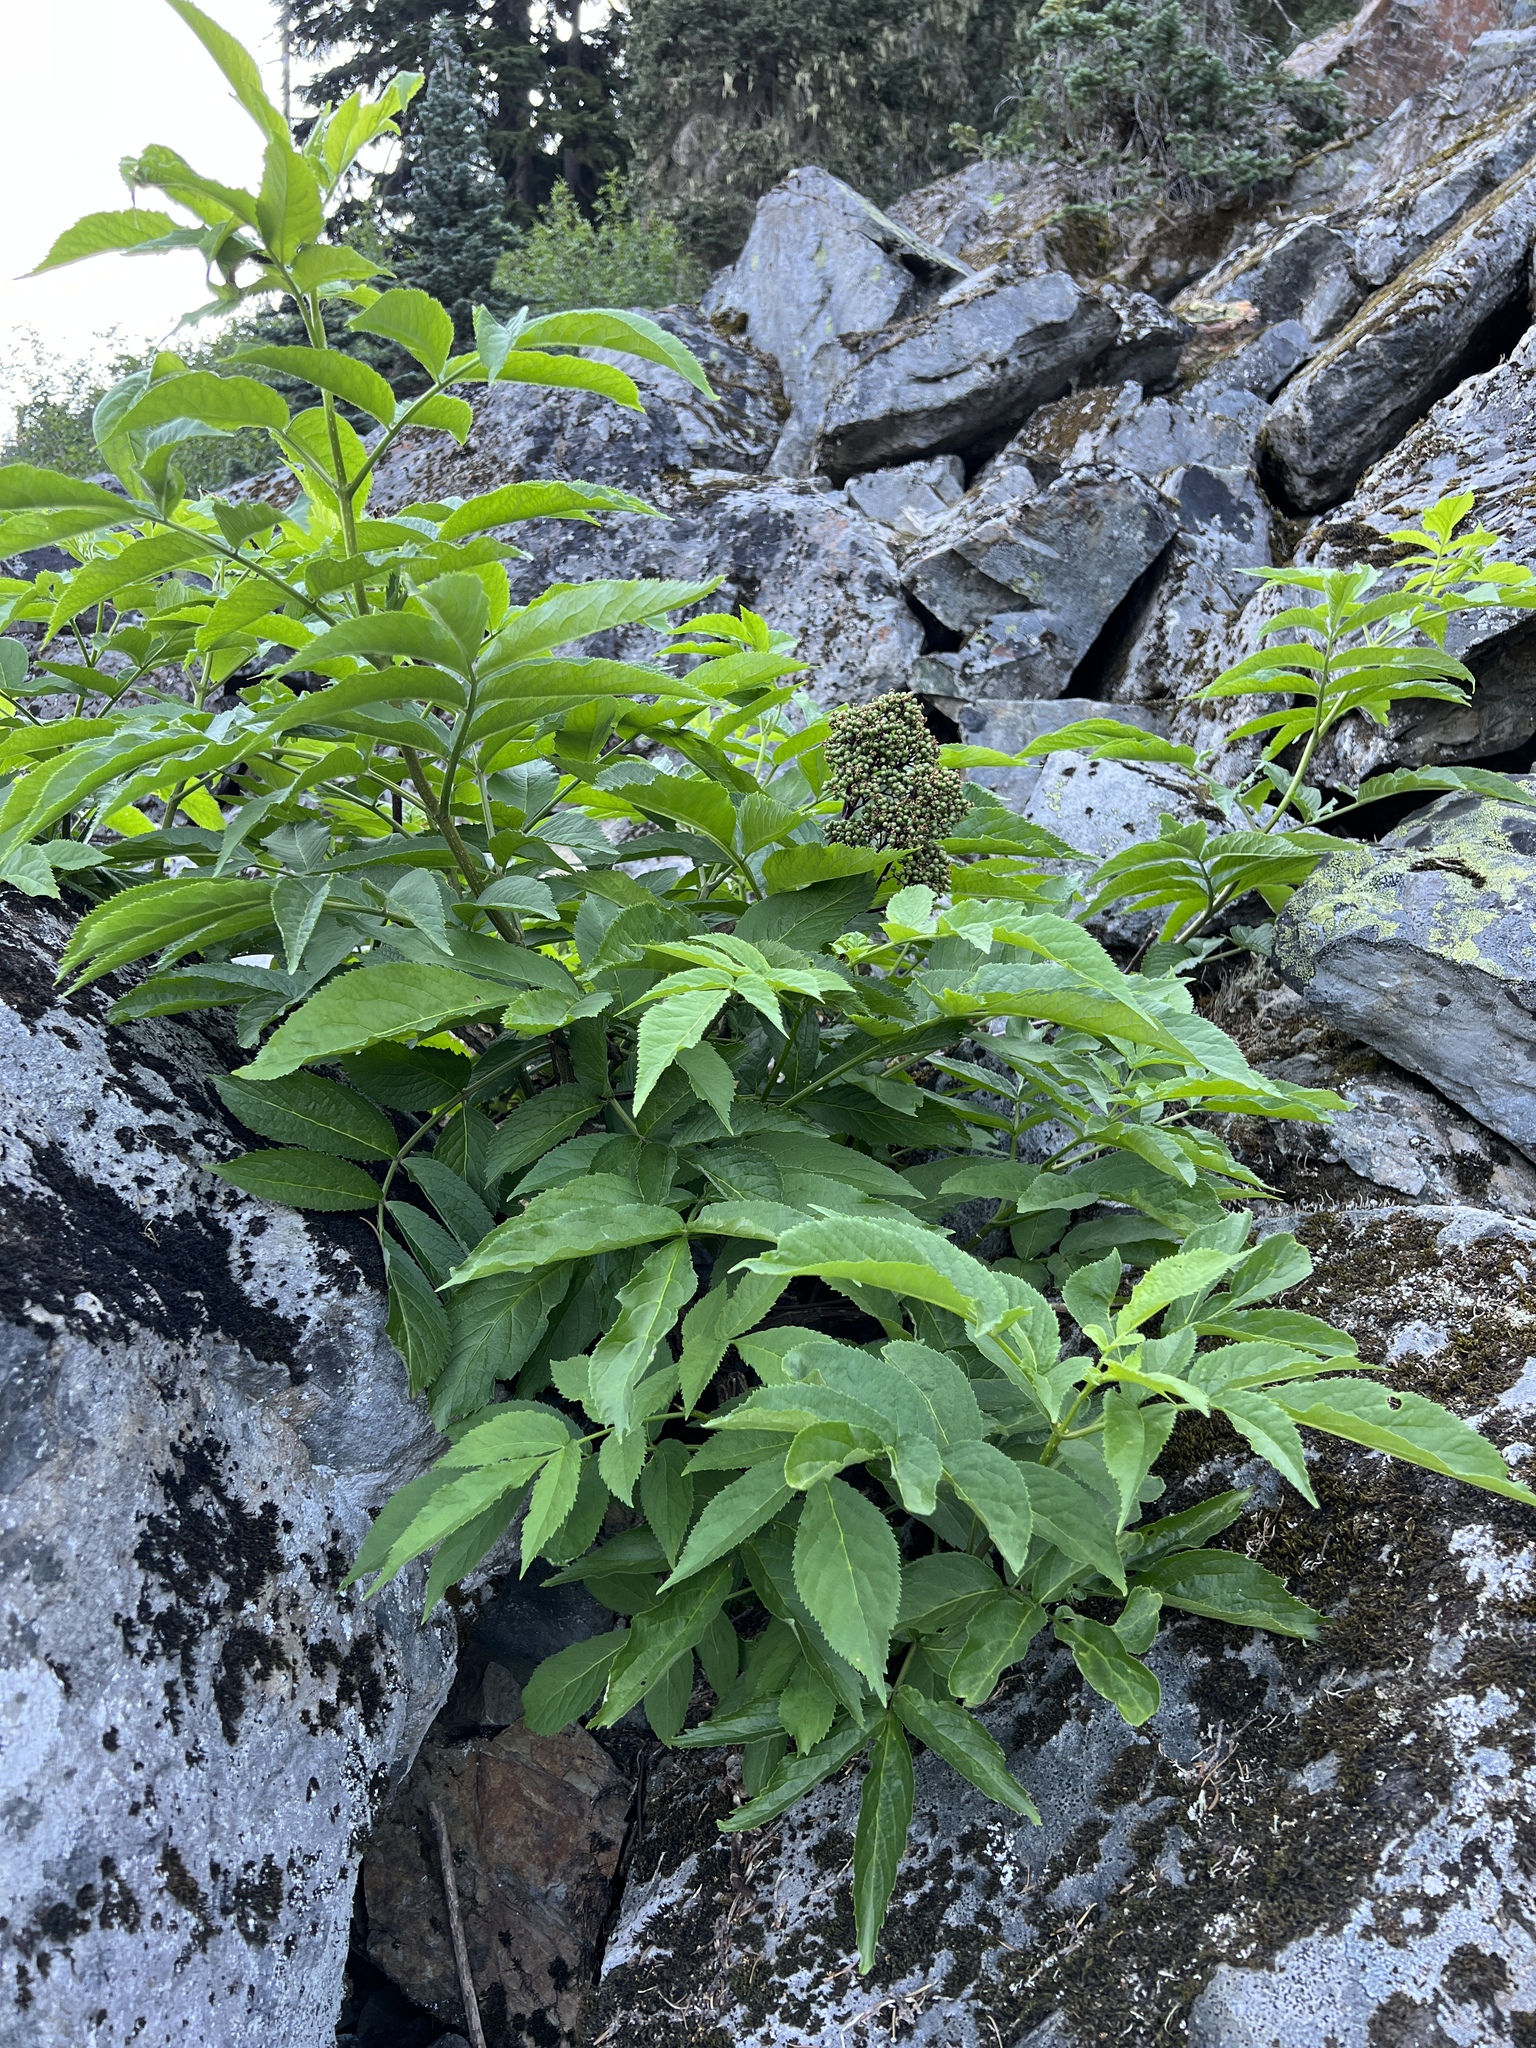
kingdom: Plantae
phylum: Tracheophyta
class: Magnoliopsida
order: Dipsacales
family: Viburnaceae
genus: Sambucus
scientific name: Sambucus racemosa
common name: Red-berried elder
